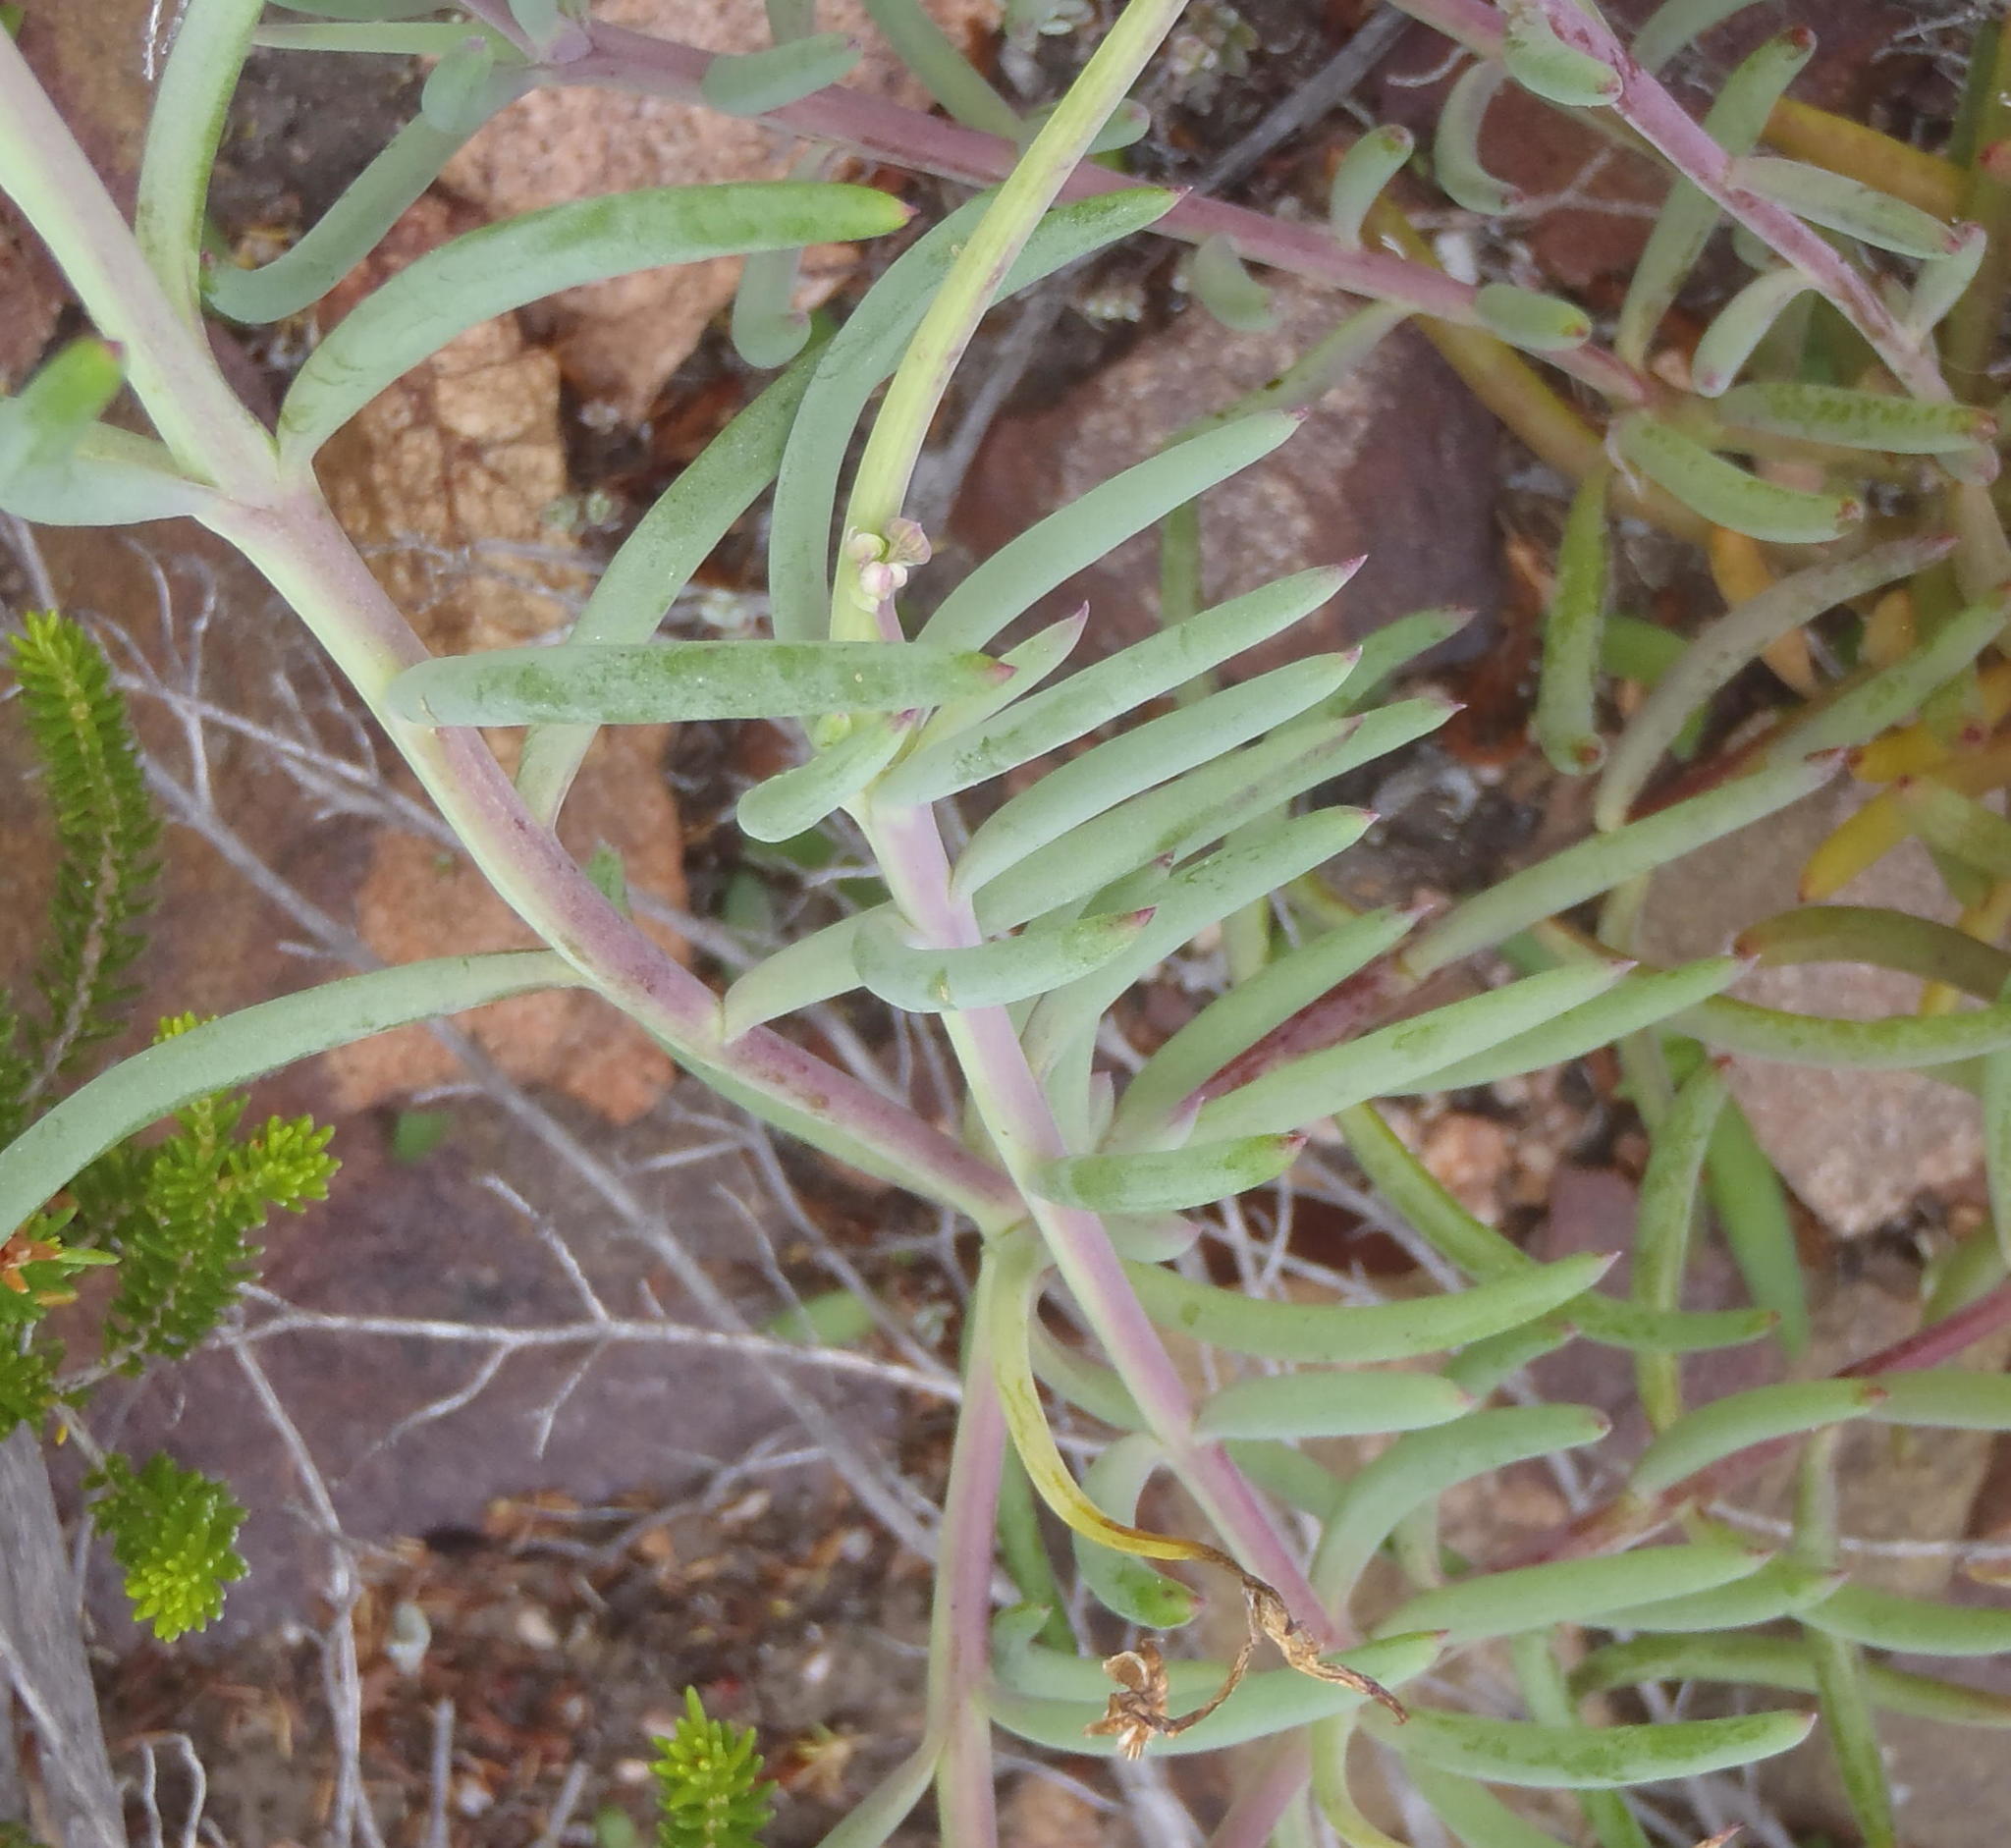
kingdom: Plantae
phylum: Tracheophyta
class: Magnoliopsida
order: Asterales
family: Asteraceae
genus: Crassothonna
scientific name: Crassothonna alba
